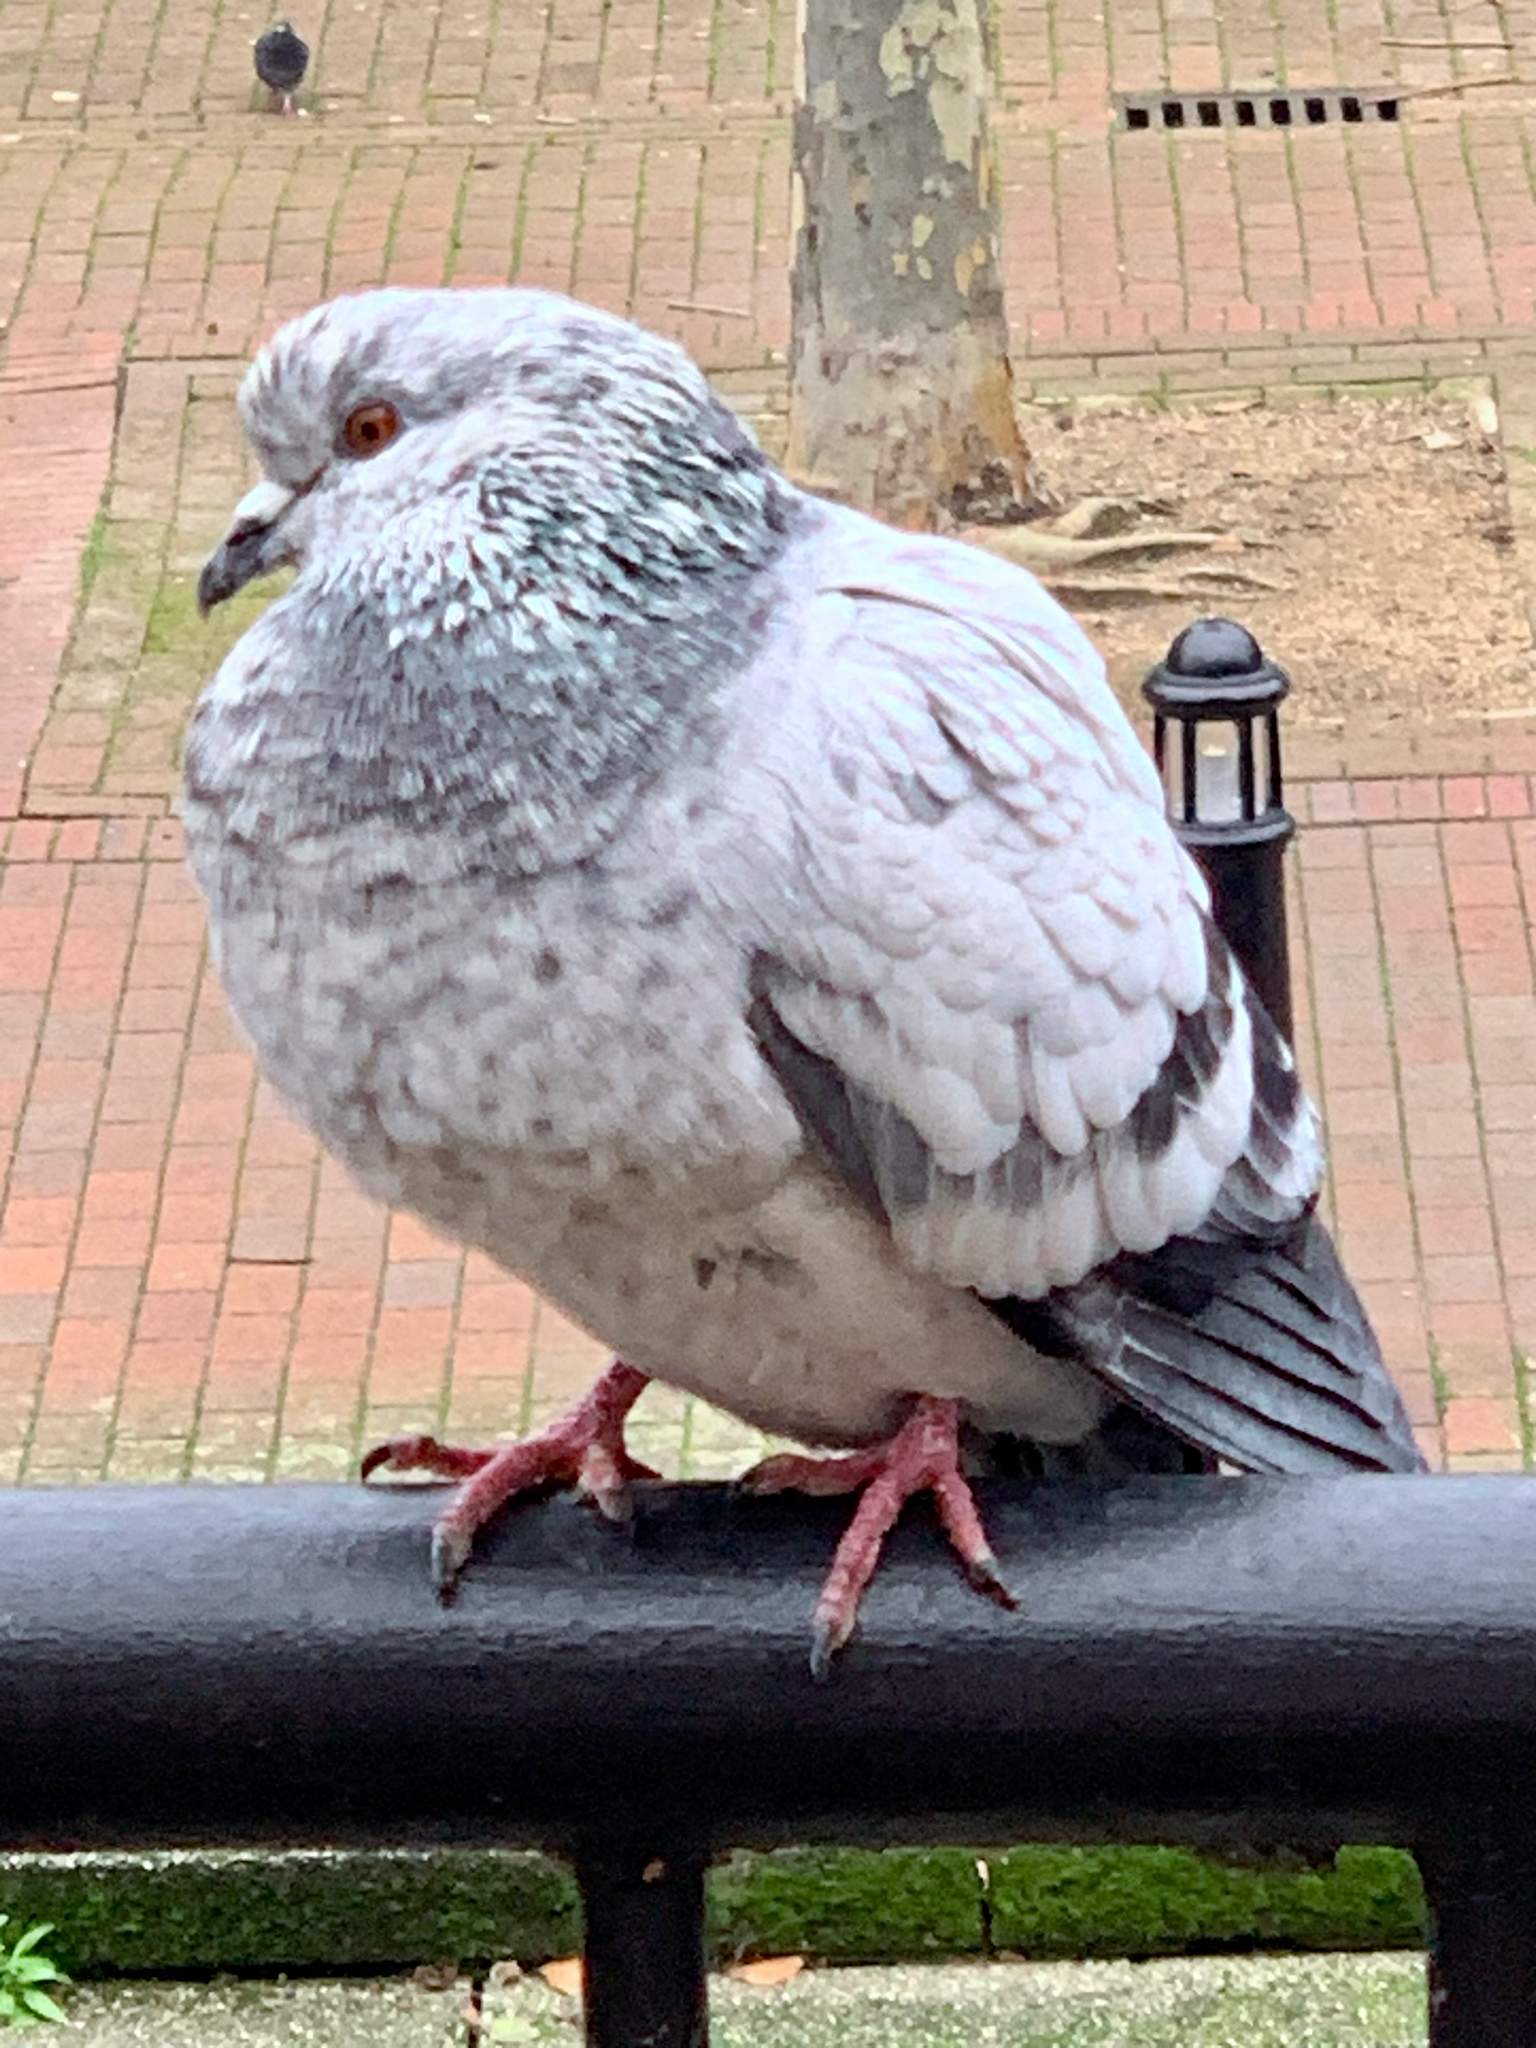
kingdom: Animalia
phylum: Chordata
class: Aves
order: Columbiformes
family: Columbidae
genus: Columba
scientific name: Columba livia
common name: Rock pigeon
